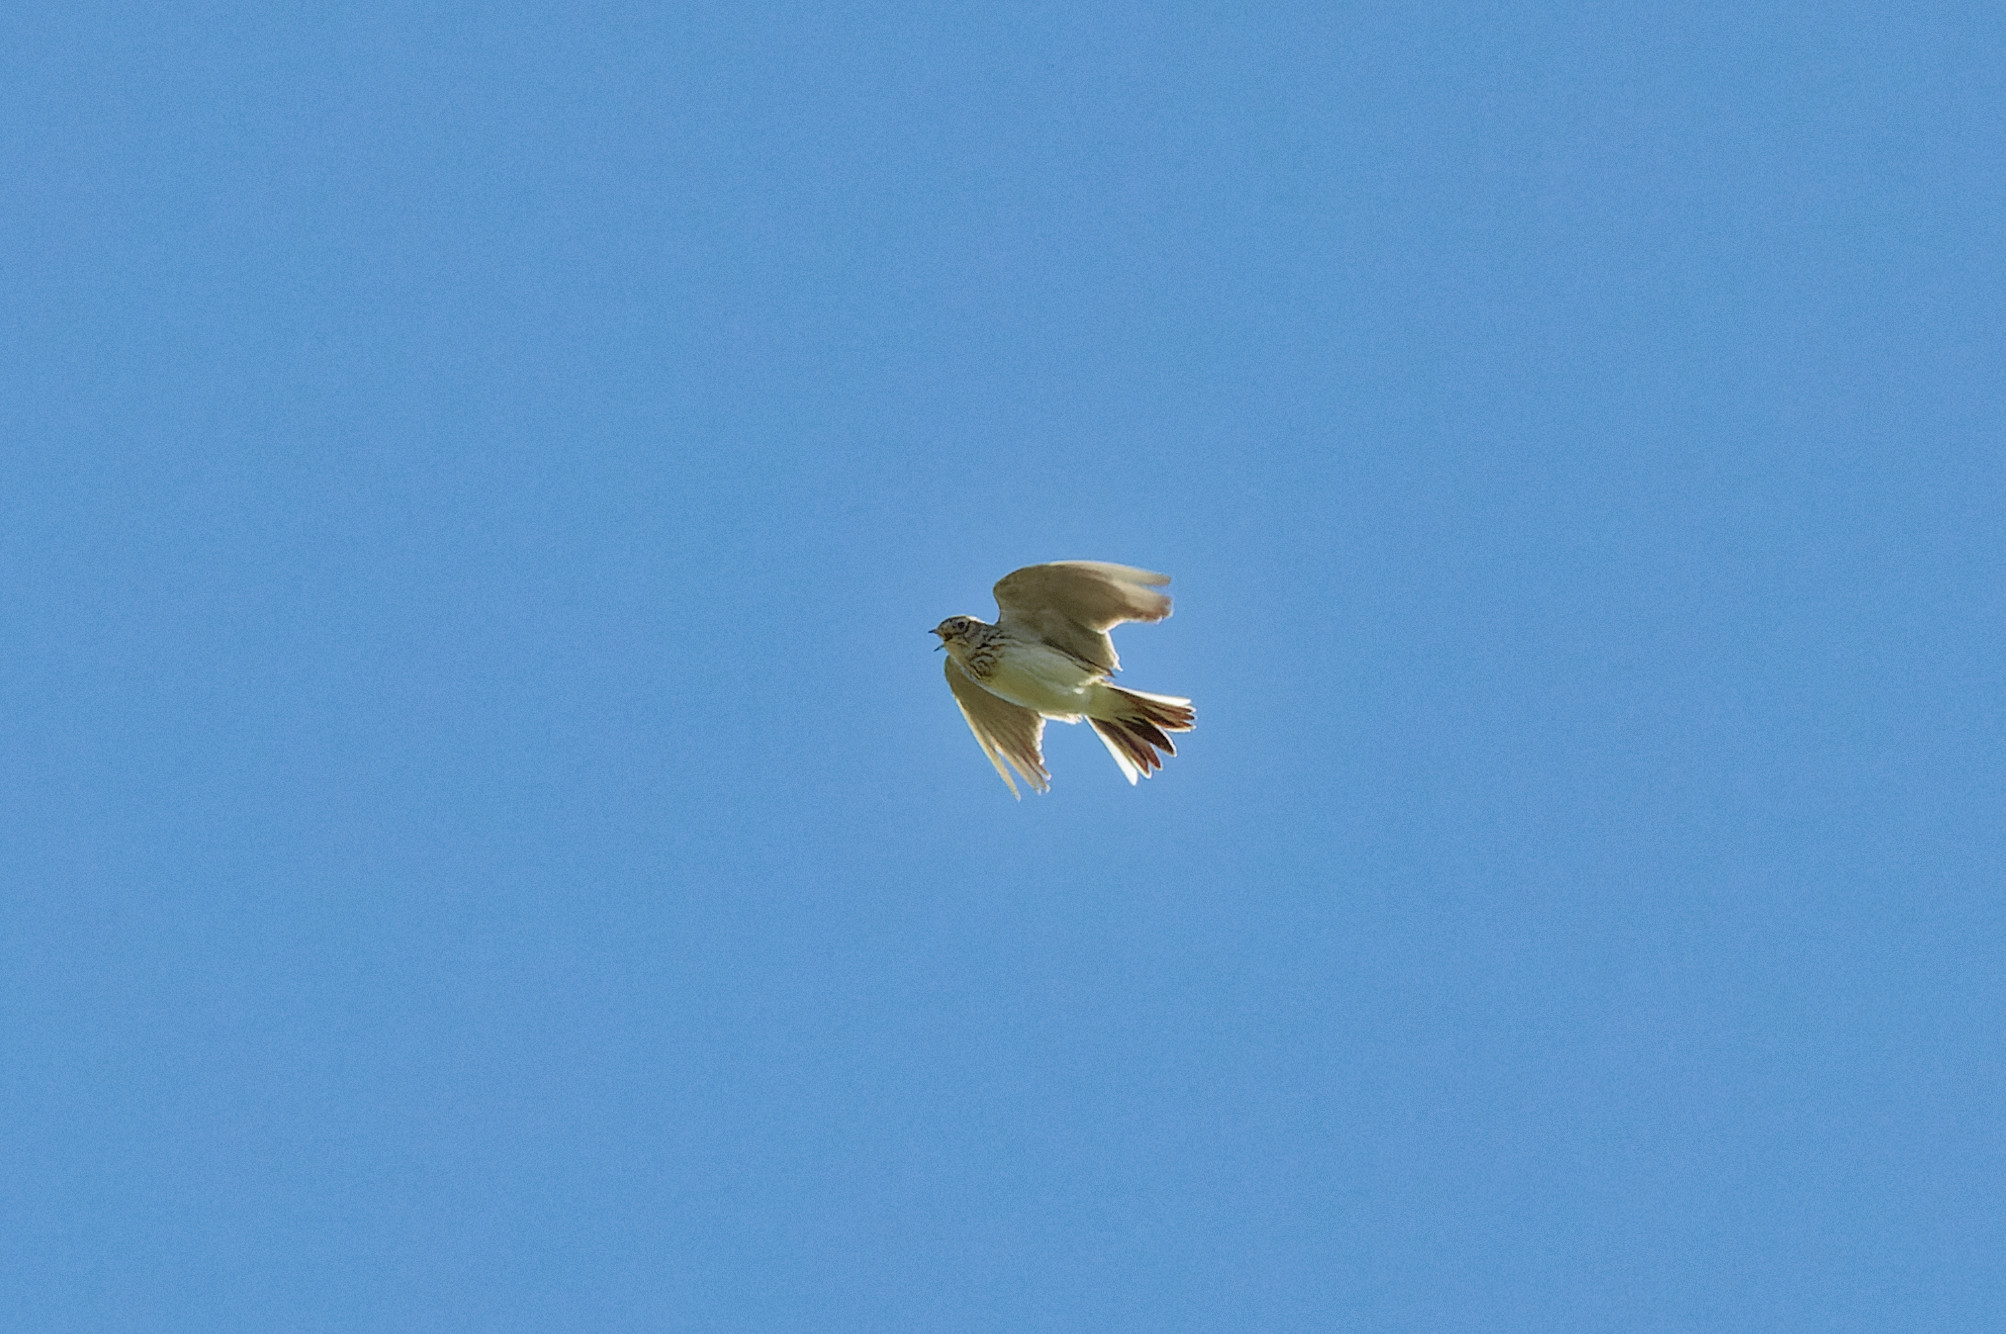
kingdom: Animalia
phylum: Chordata
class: Aves
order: Passeriformes
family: Alaudidae
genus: Alauda
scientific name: Alauda arvensis
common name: Eurasian skylark
